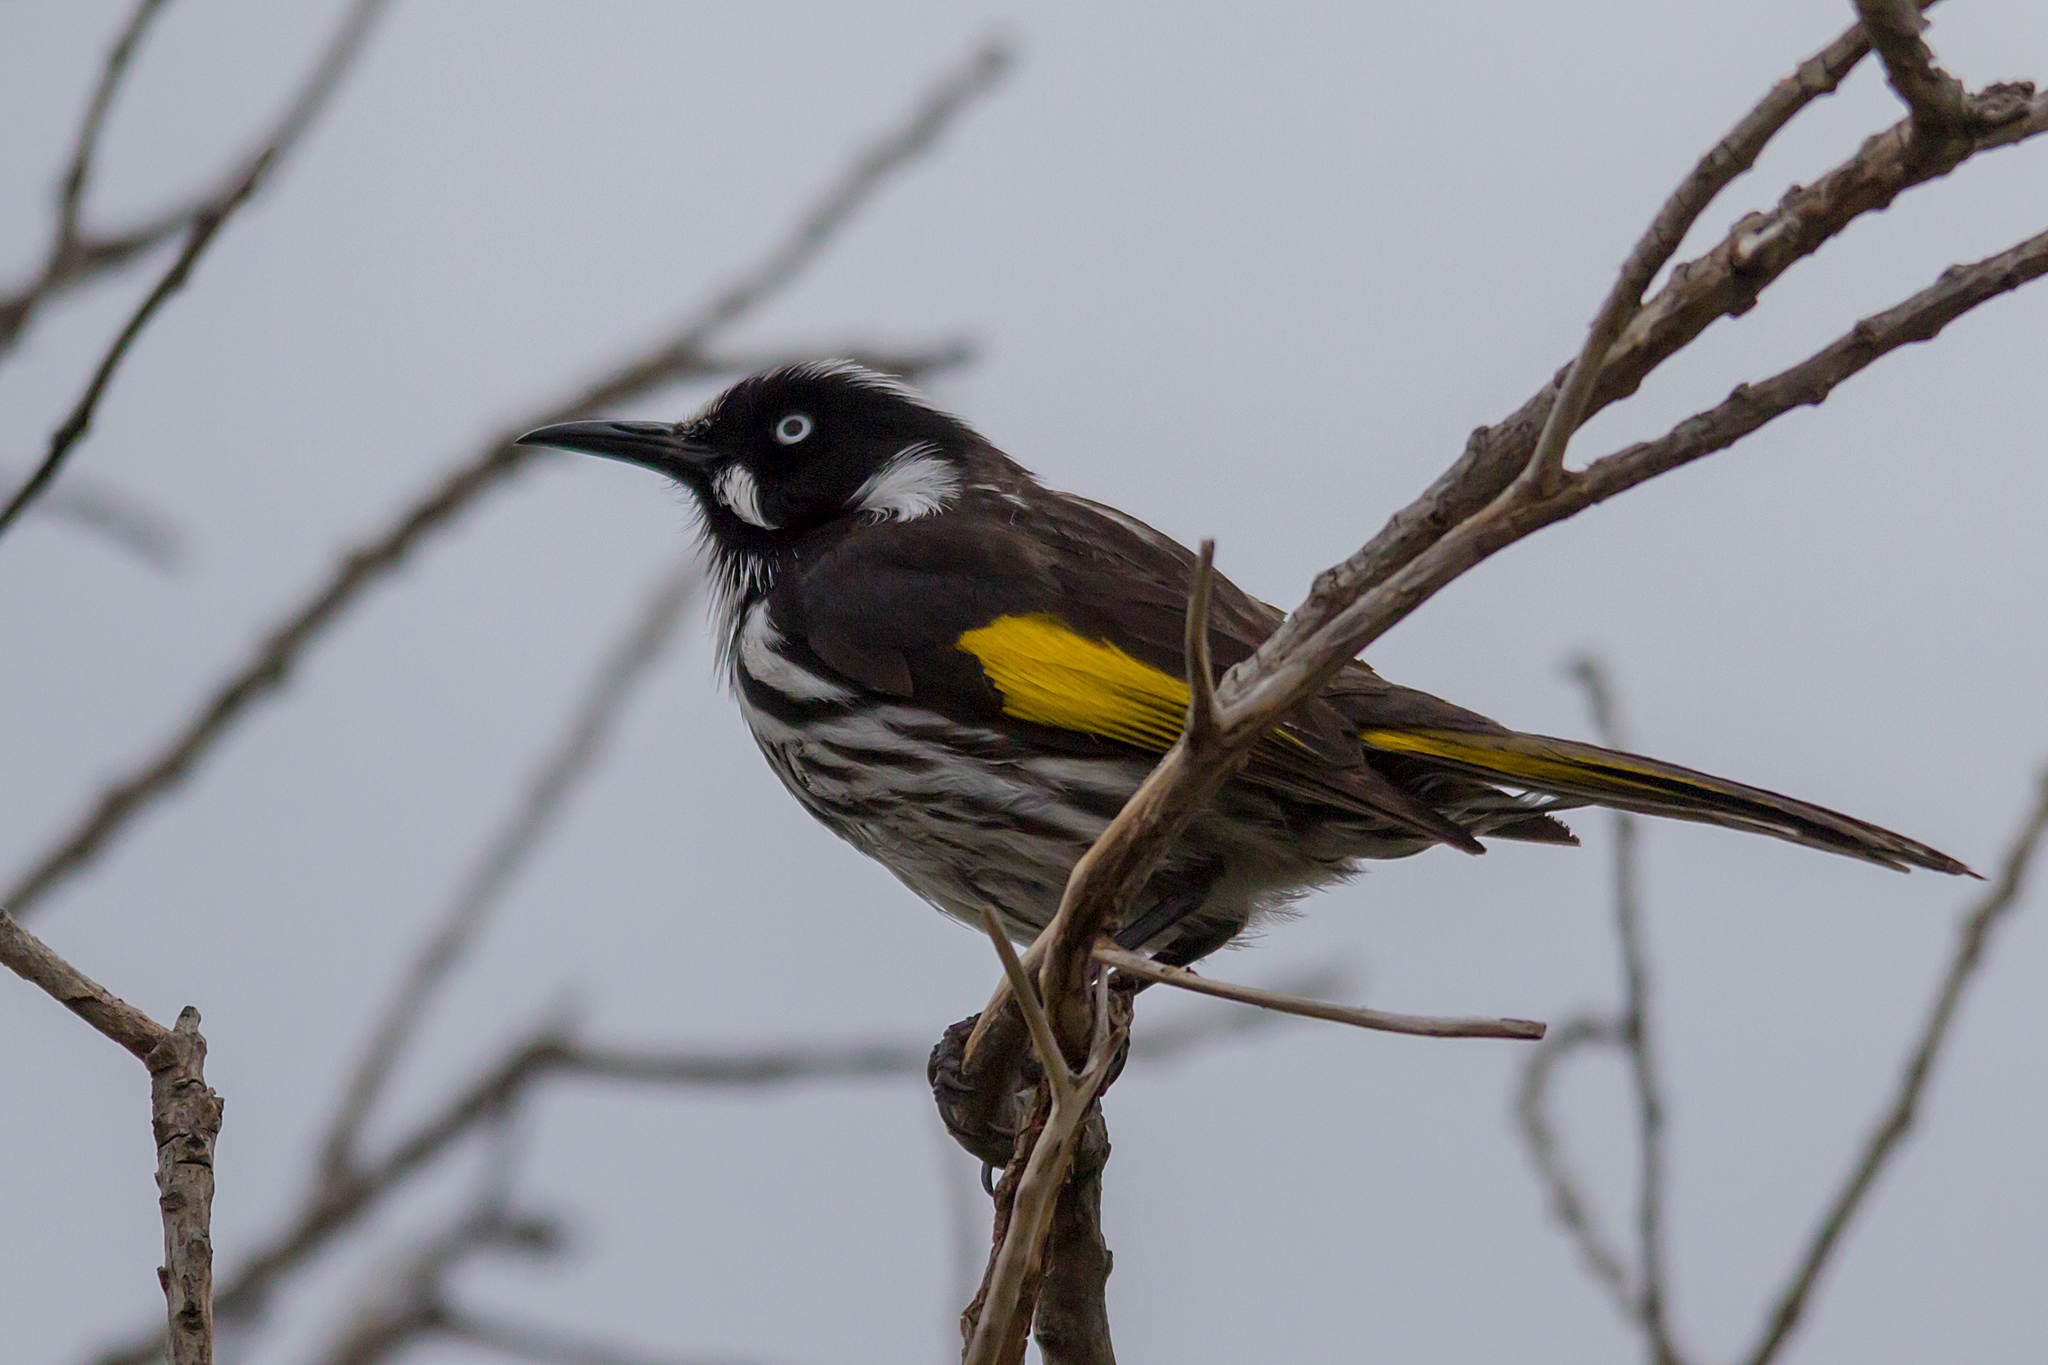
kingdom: Animalia
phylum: Chordata
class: Aves
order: Passeriformes
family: Meliphagidae
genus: Phylidonyris
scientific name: Phylidonyris novaehollandiae
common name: New holland honeyeater
